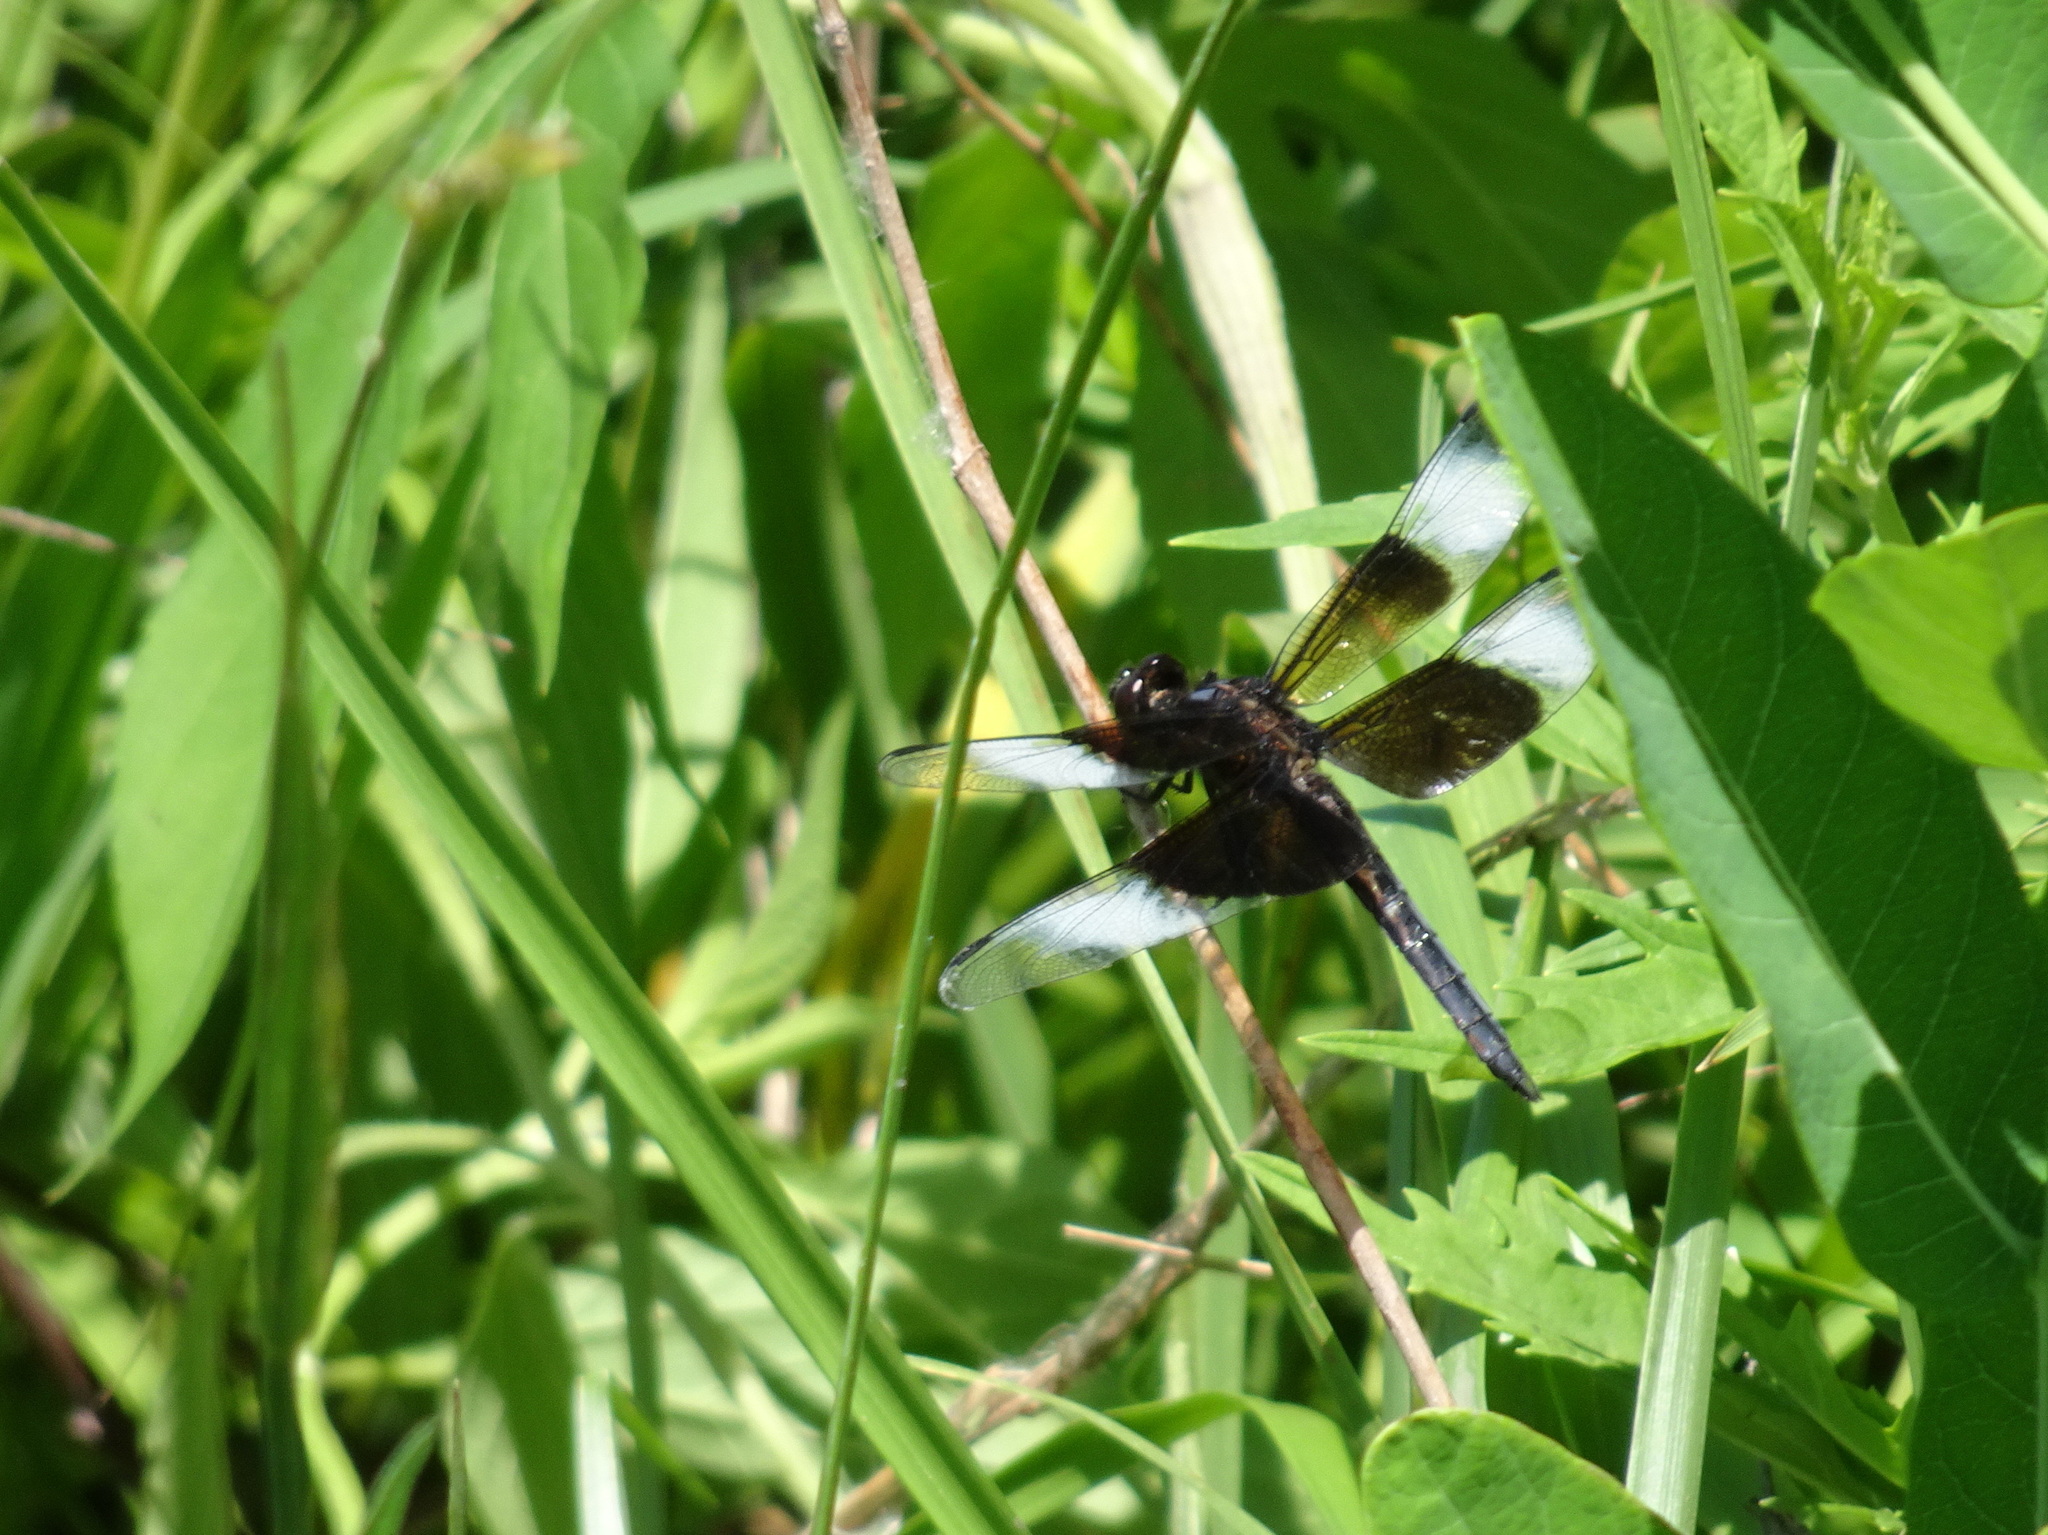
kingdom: Animalia
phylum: Arthropoda
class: Insecta
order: Odonata
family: Libellulidae
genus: Libellula
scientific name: Libellula luctuosa
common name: Widow skimmer
